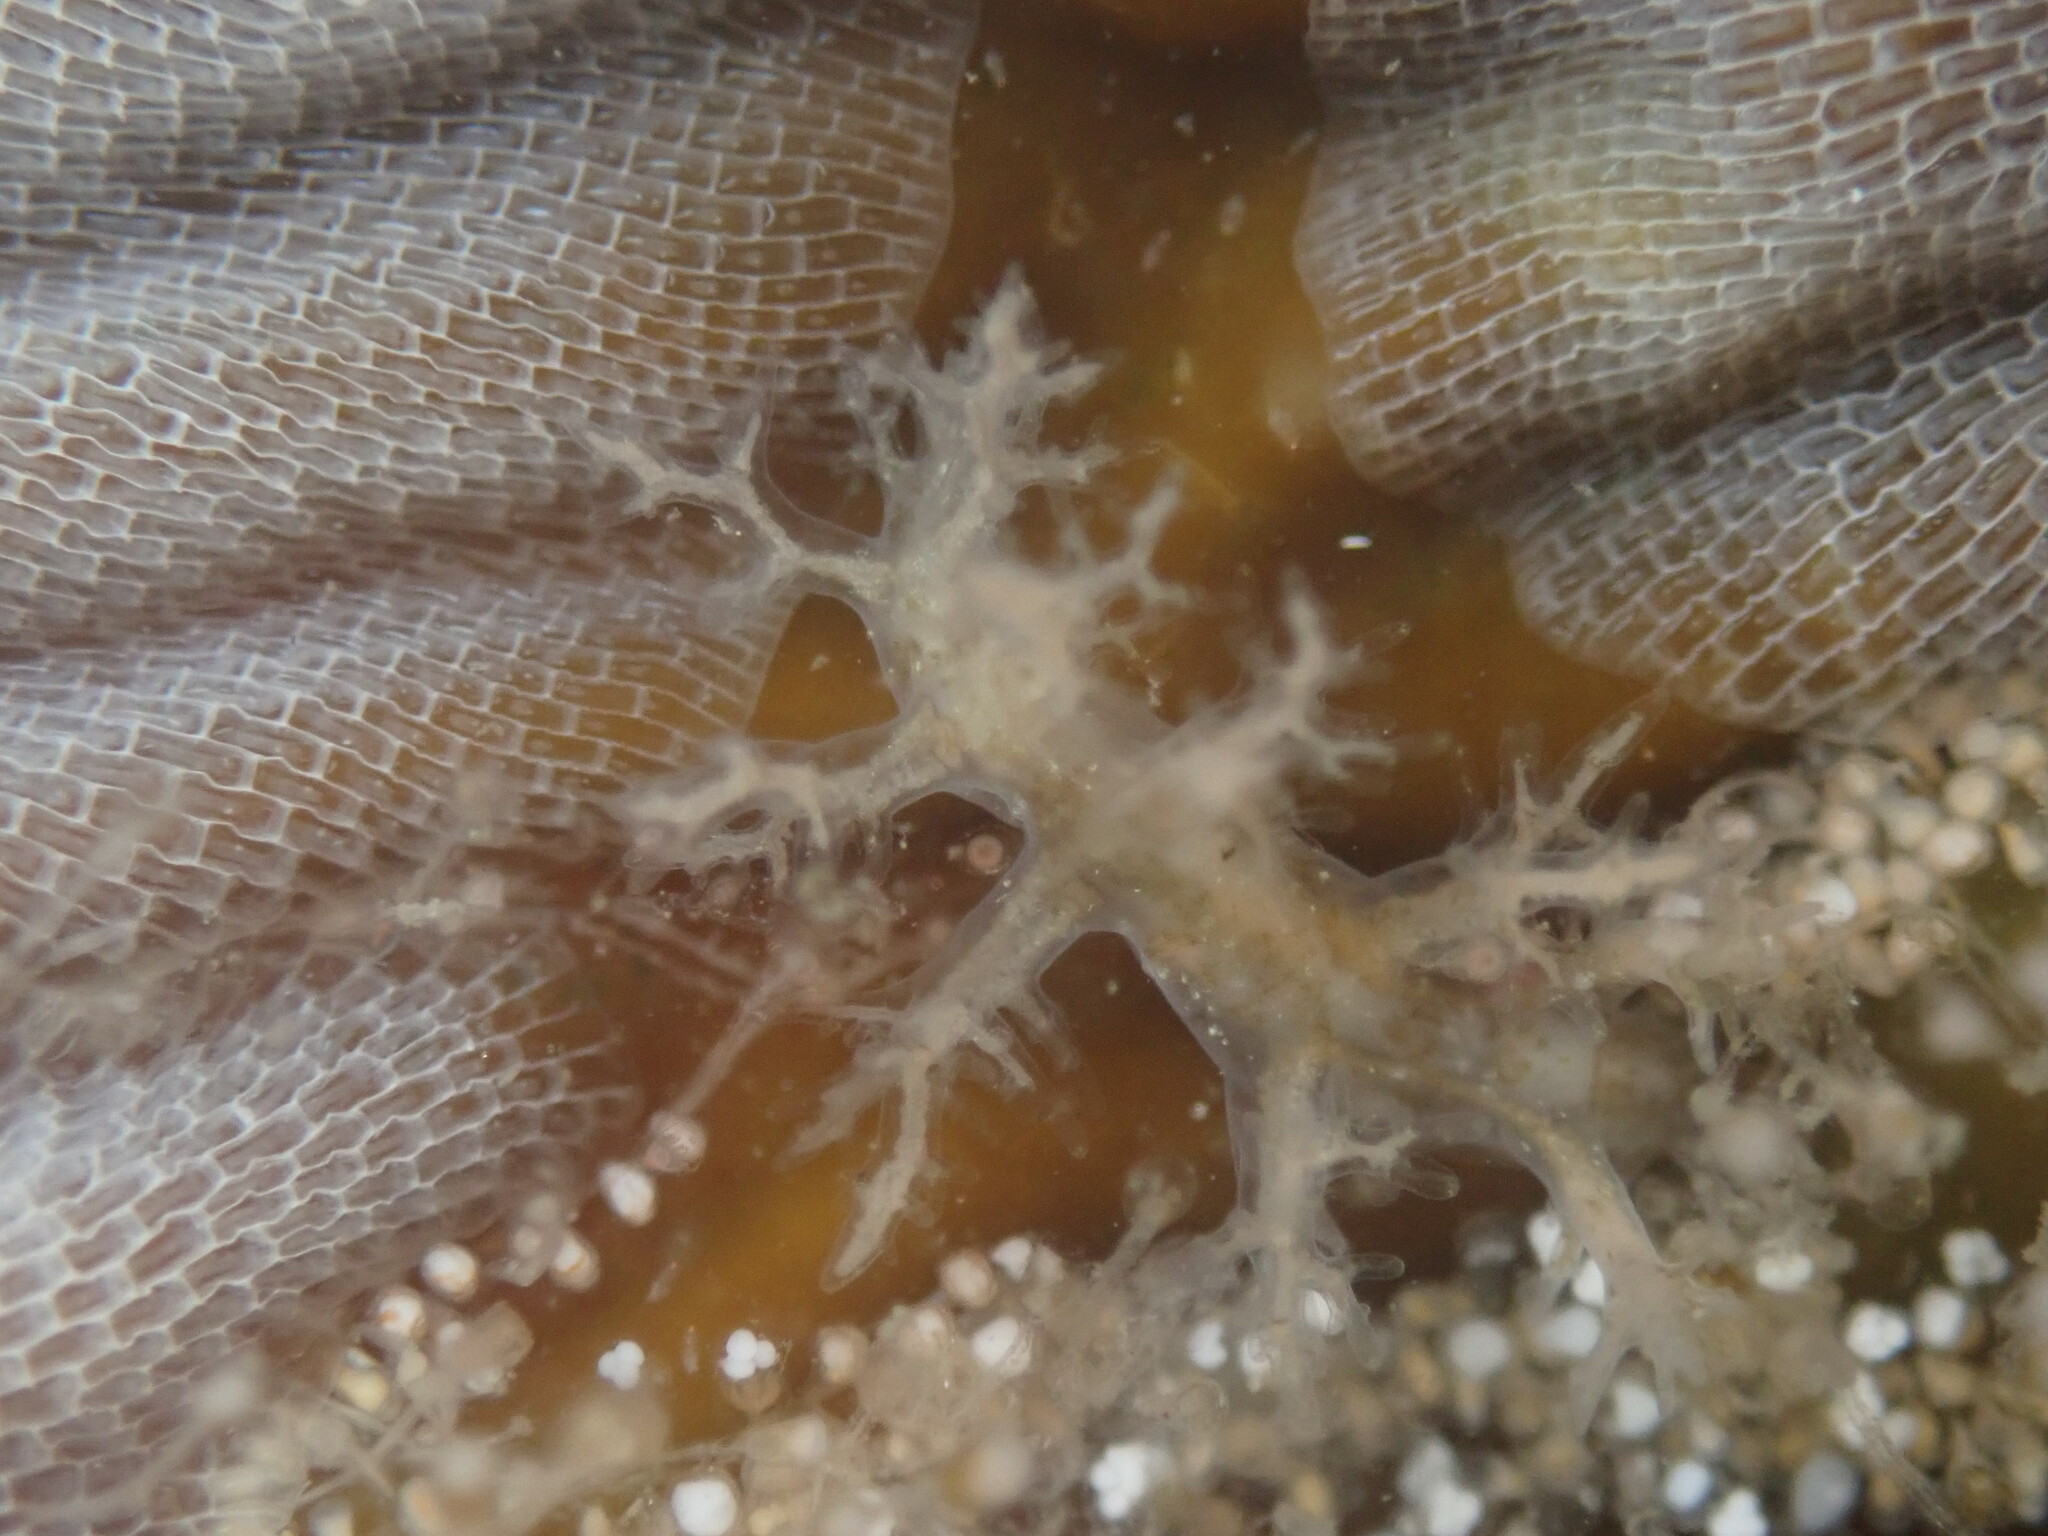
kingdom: Animalia
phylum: Mollusca
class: Gastropoda
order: Nudibranchia
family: Dendronotidae
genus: Dendronotus
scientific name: Dendronotus venustus
